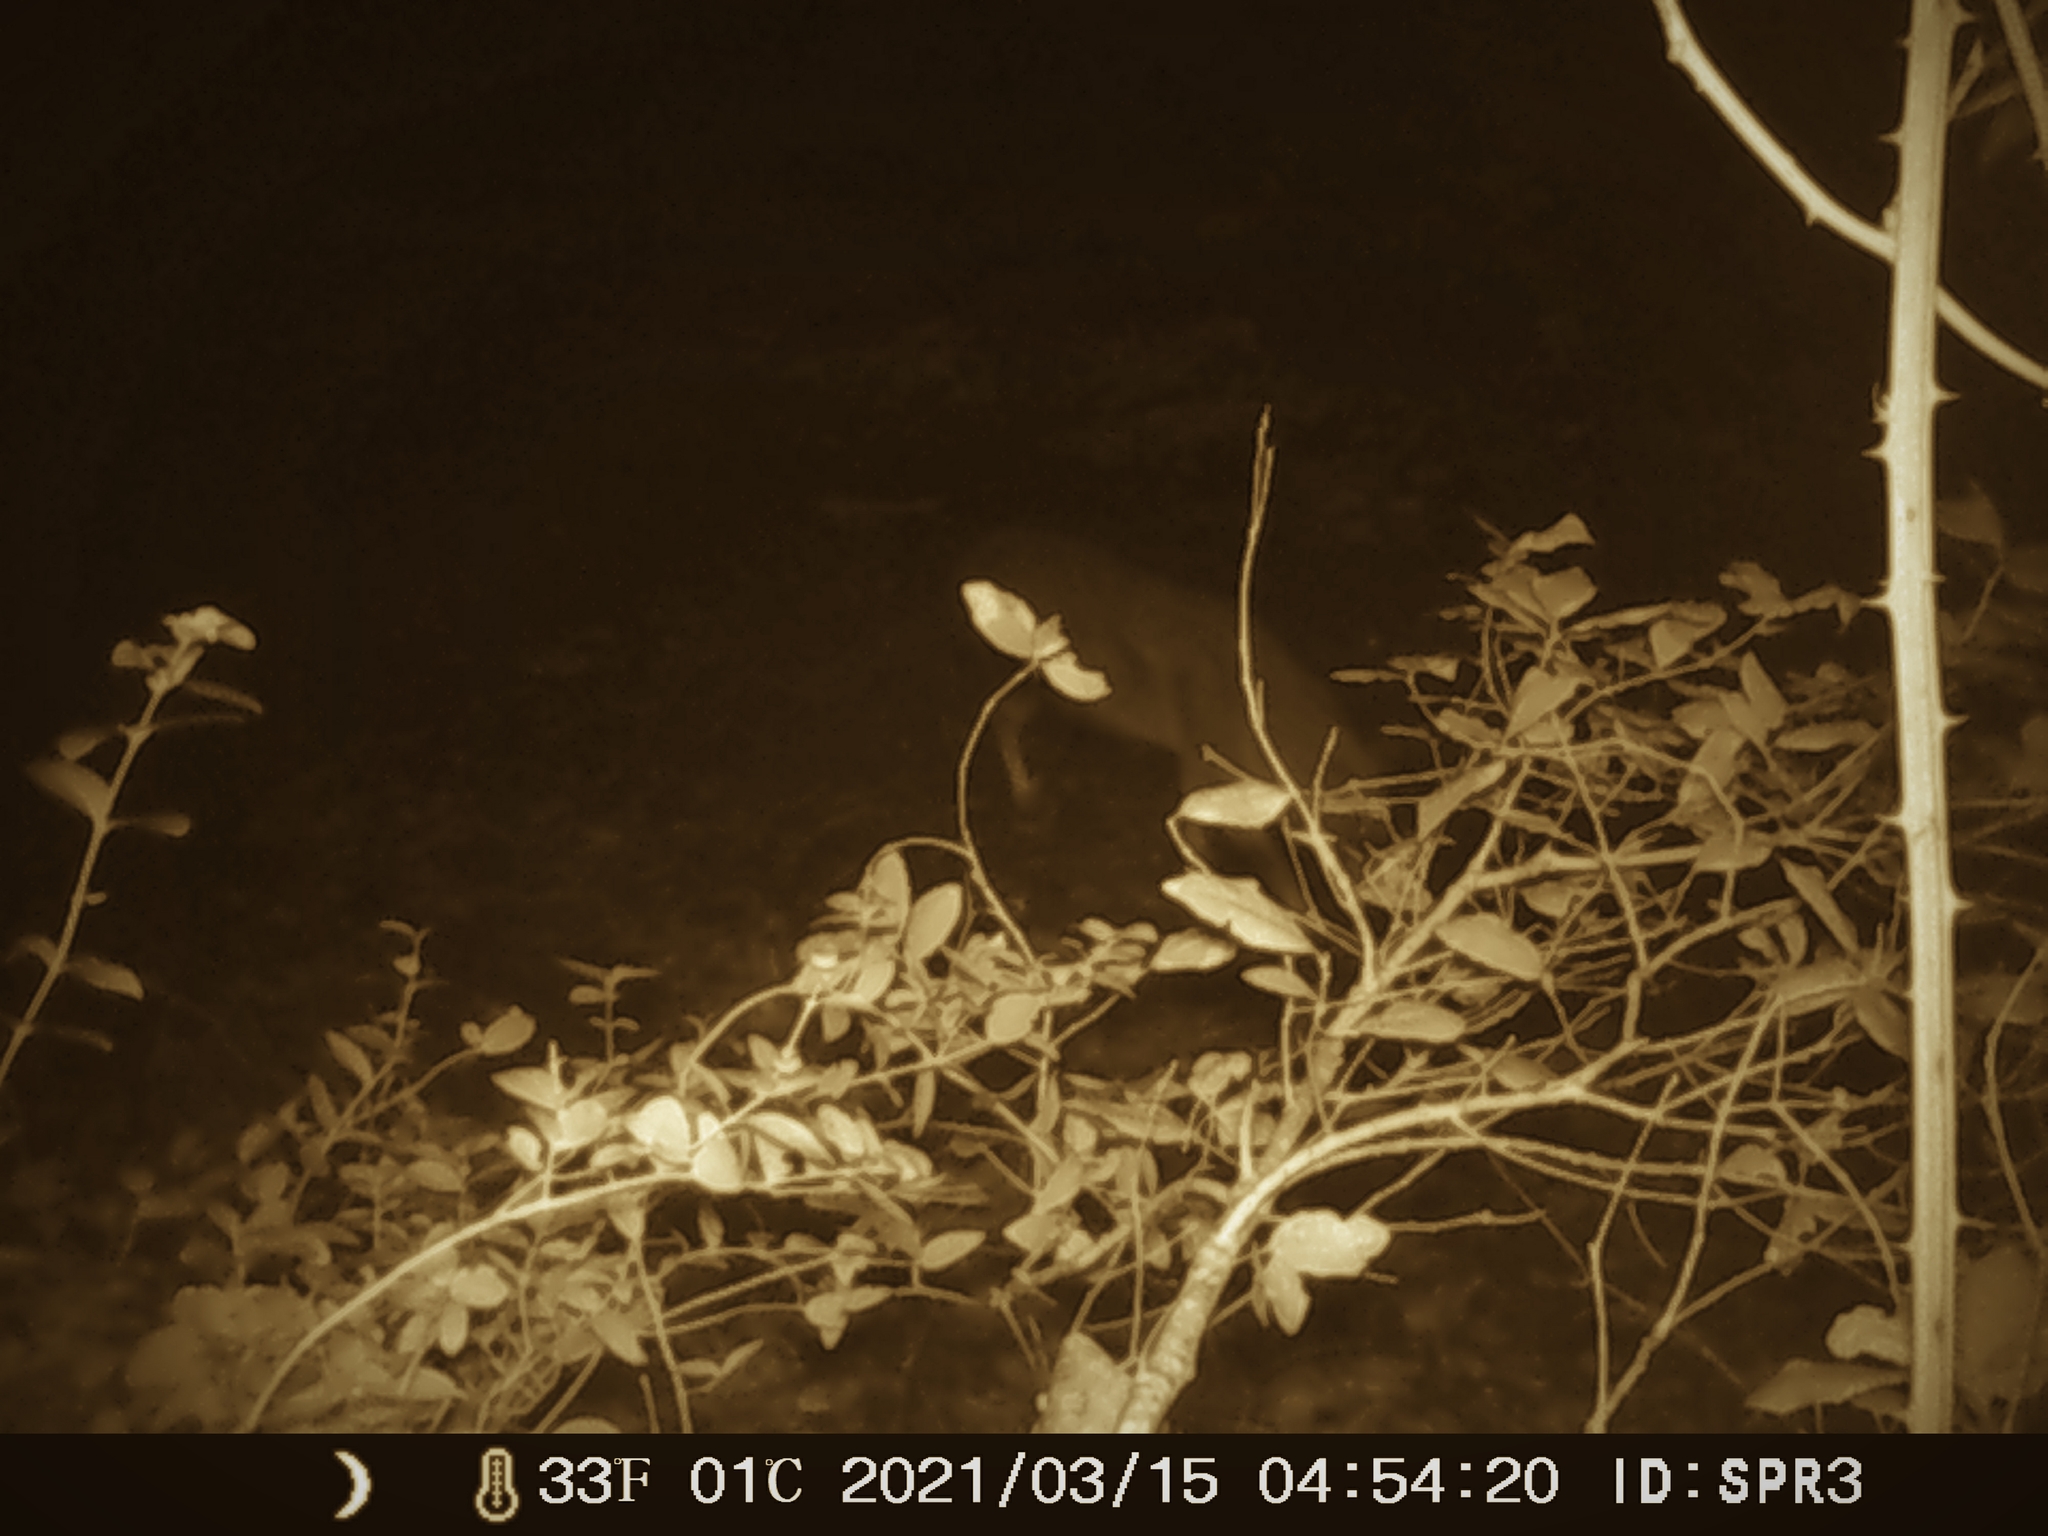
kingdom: Animalia
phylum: Chordata
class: Mammalia
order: Artiodactyla
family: Cervidae
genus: Capreolus
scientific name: Capreolus capreolus
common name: Western roe deer
